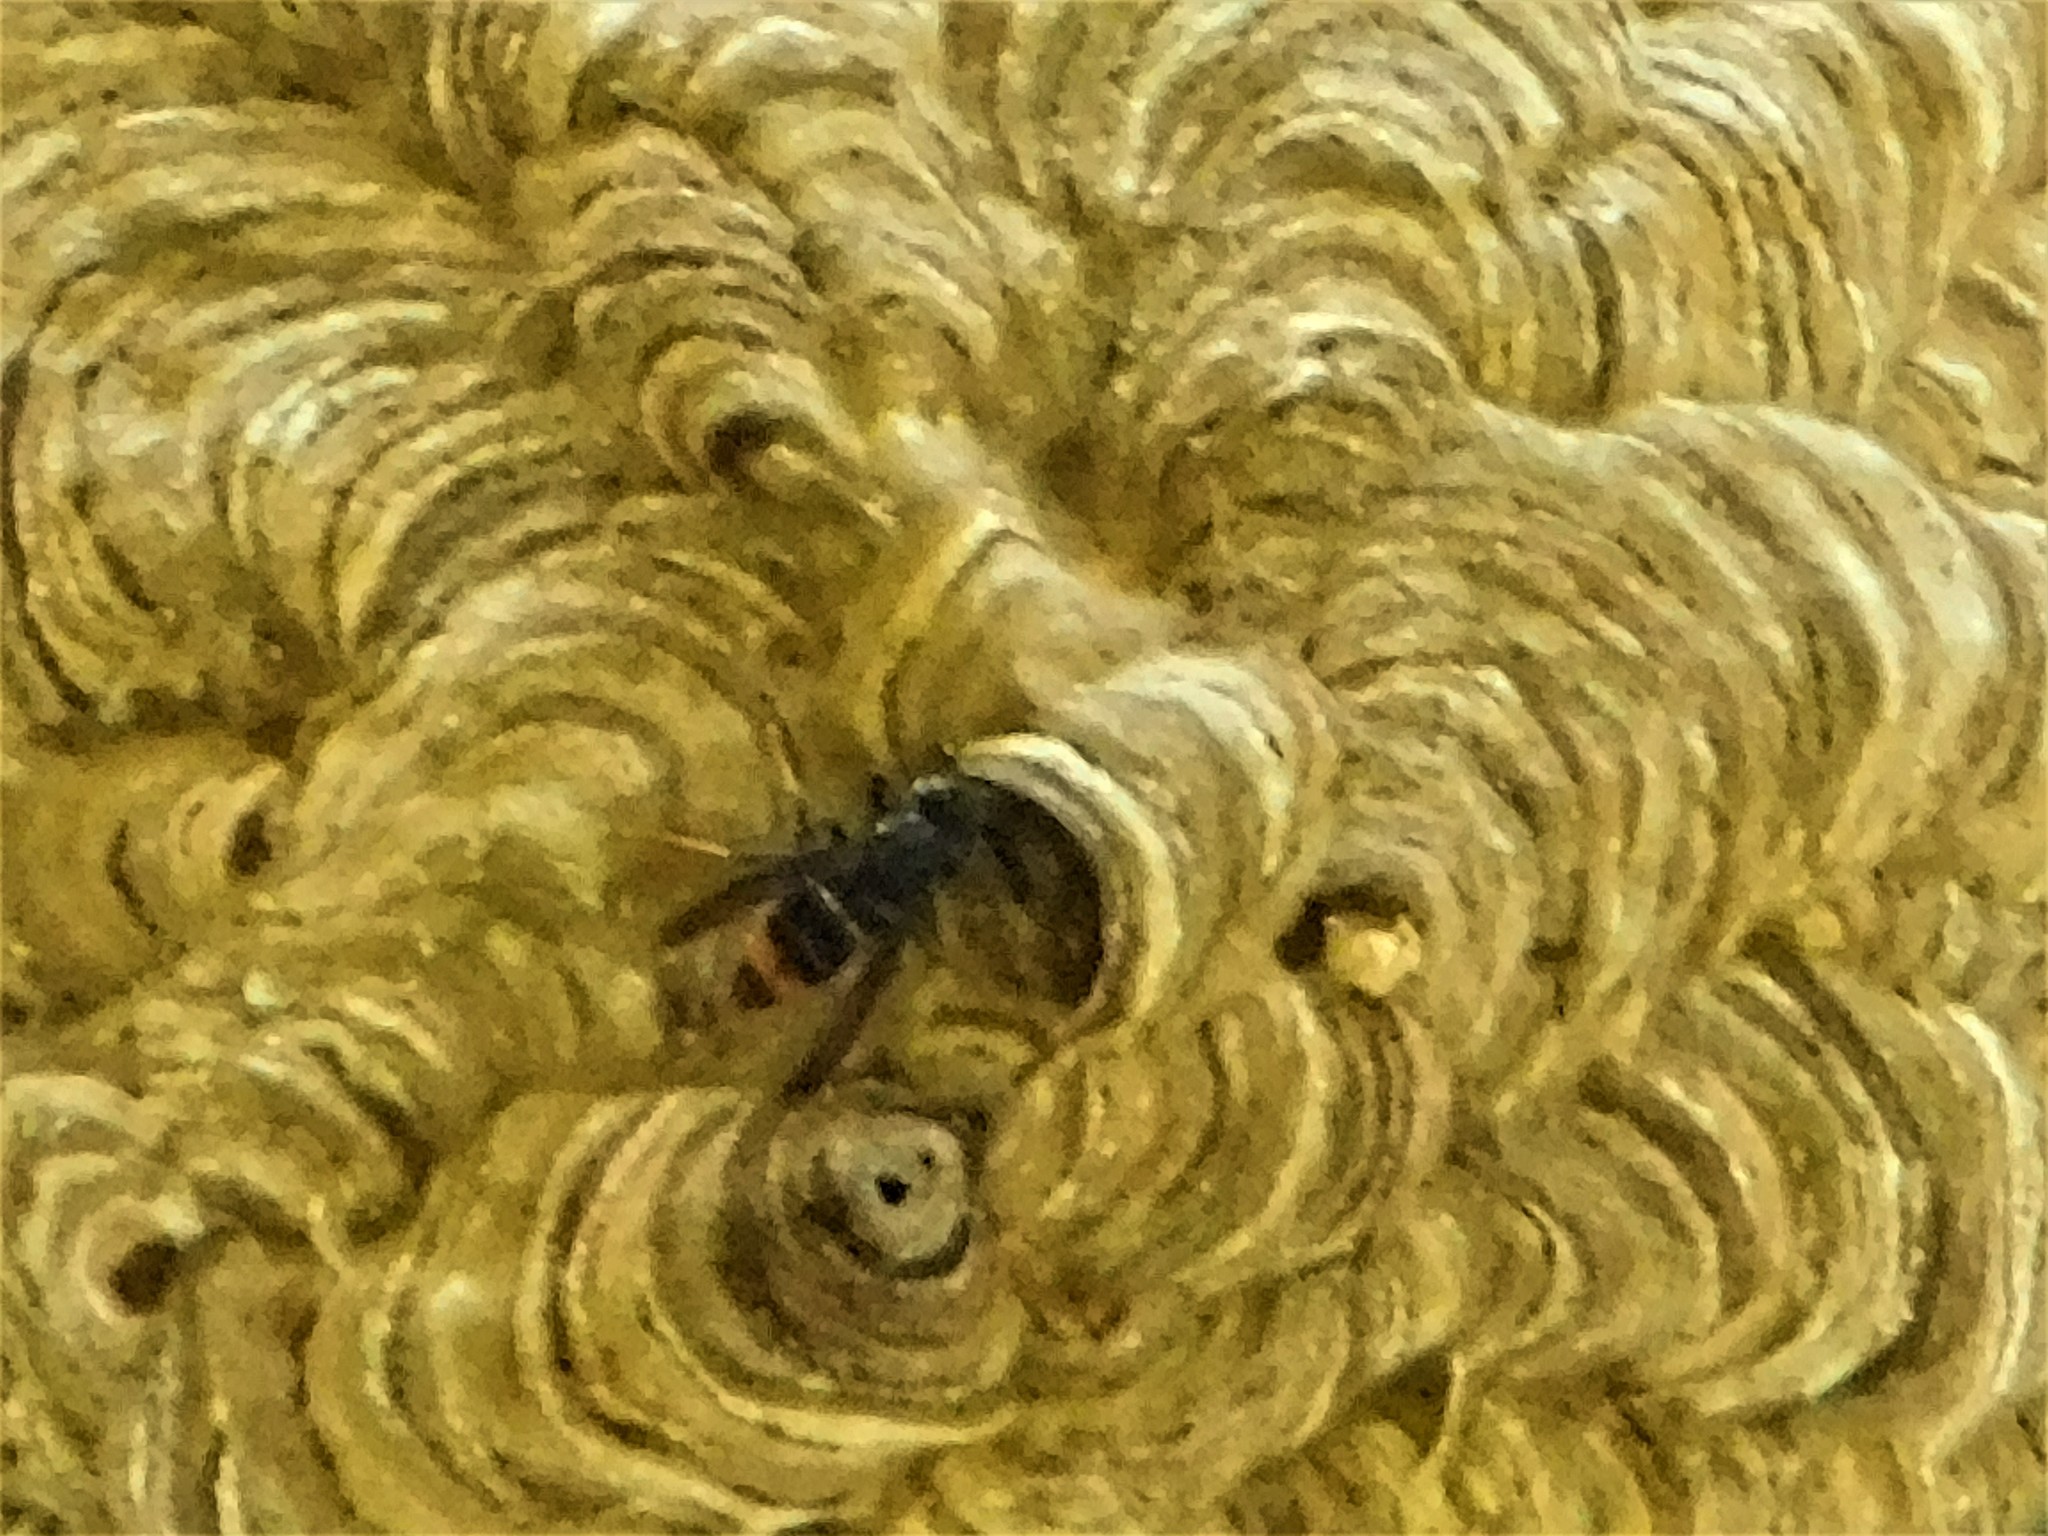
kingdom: Animalia
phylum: Arthropoda
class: Insecta
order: Hymenoptera
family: Vespidae
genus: Vespa
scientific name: Vespa velutina
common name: Asian hornet
